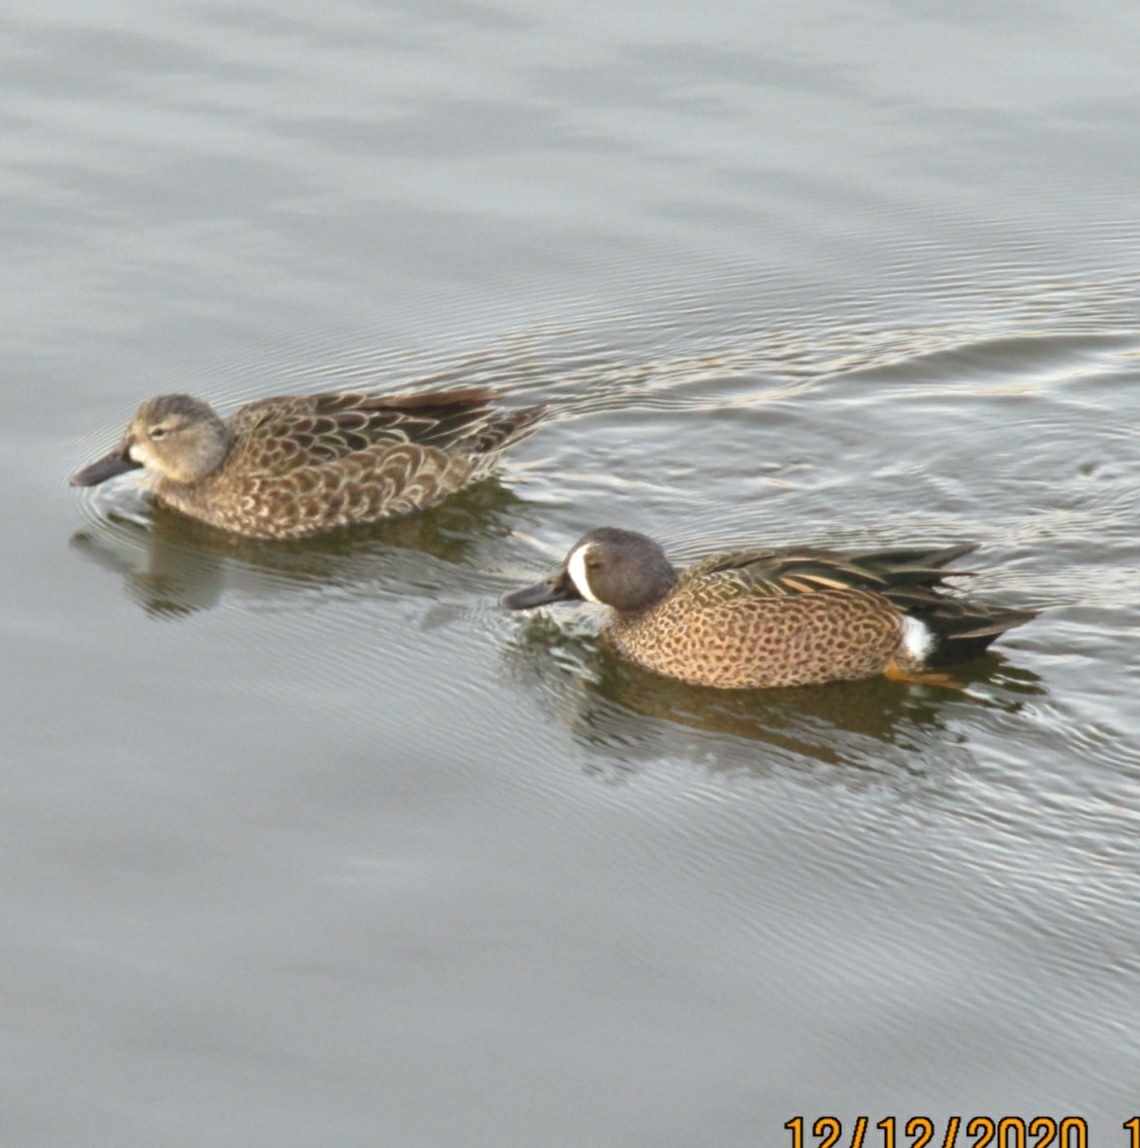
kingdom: Animalia
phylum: Chordata
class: Aves
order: Anseriformes
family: Anatidae
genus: Spatula
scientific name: Spatula discors
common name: Blue-winged teal
